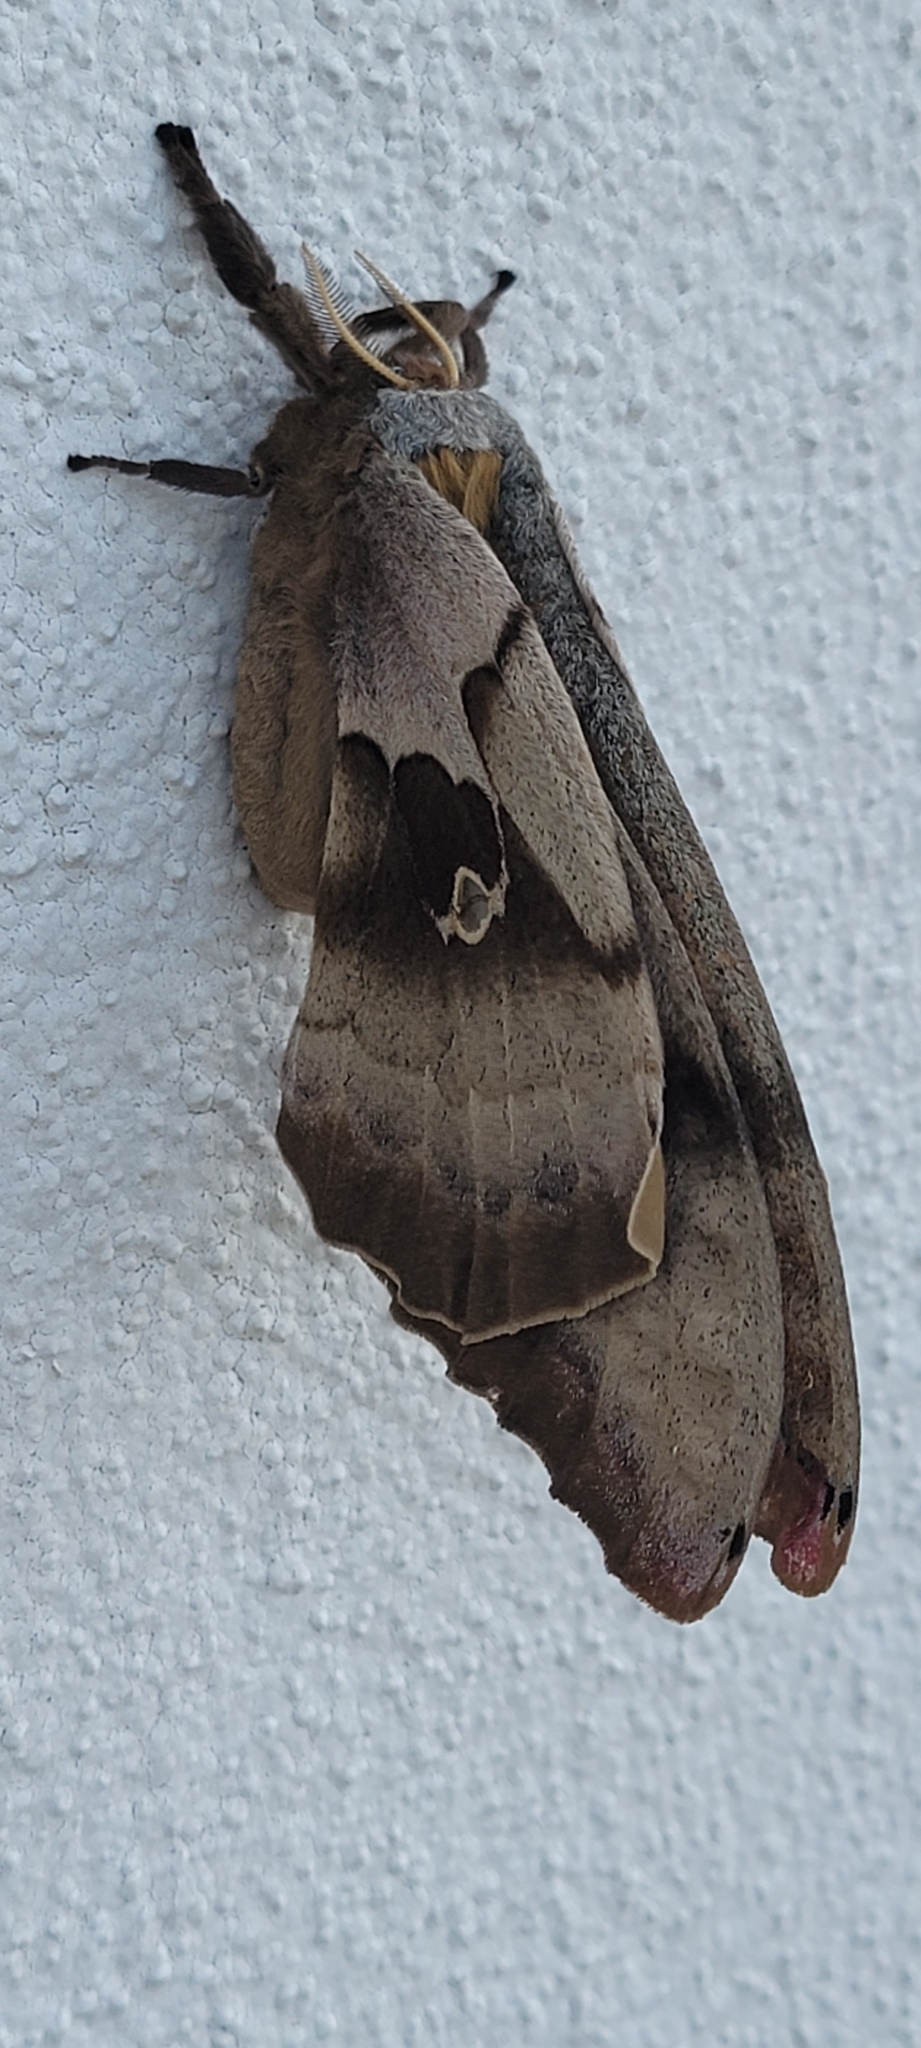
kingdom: Animalia
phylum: Arthropoda
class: Insecta
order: Lepidoptera
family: Saturniidae
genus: Antheraea
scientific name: Antheraea polyphemus
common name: Polyphemus moth
